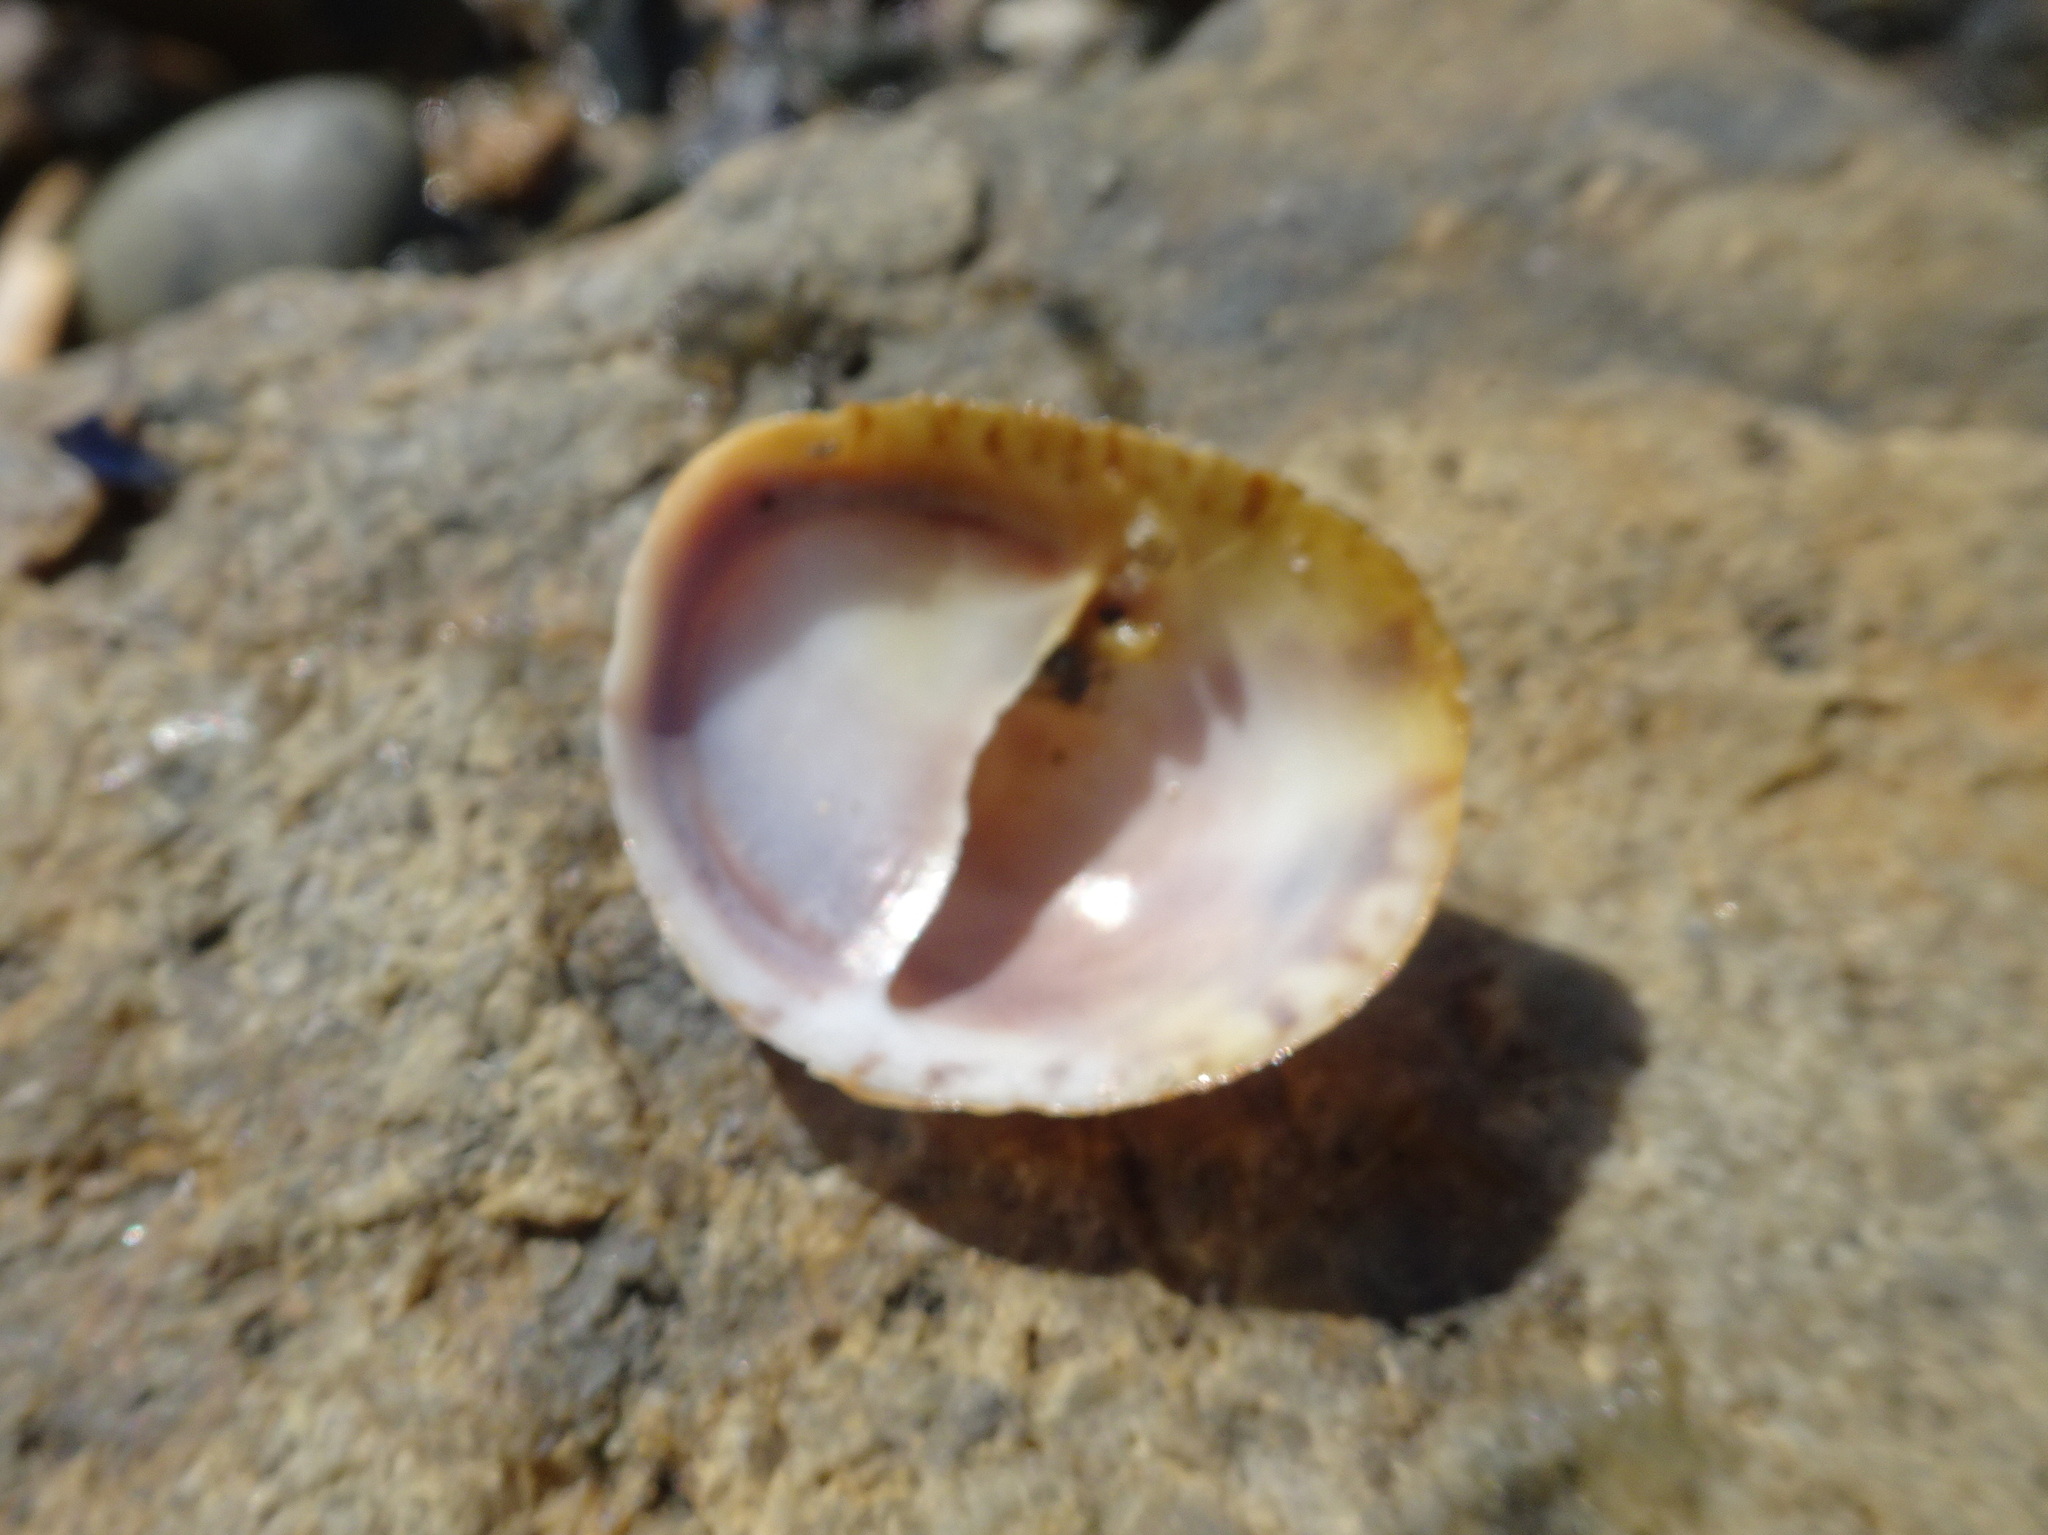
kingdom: Animalia
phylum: Mollusca
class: Gastropoda
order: Littorinimorpha
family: Calyptraeidae
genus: Crepidula
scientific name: Crepidula fornicata
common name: Slipper limpet
